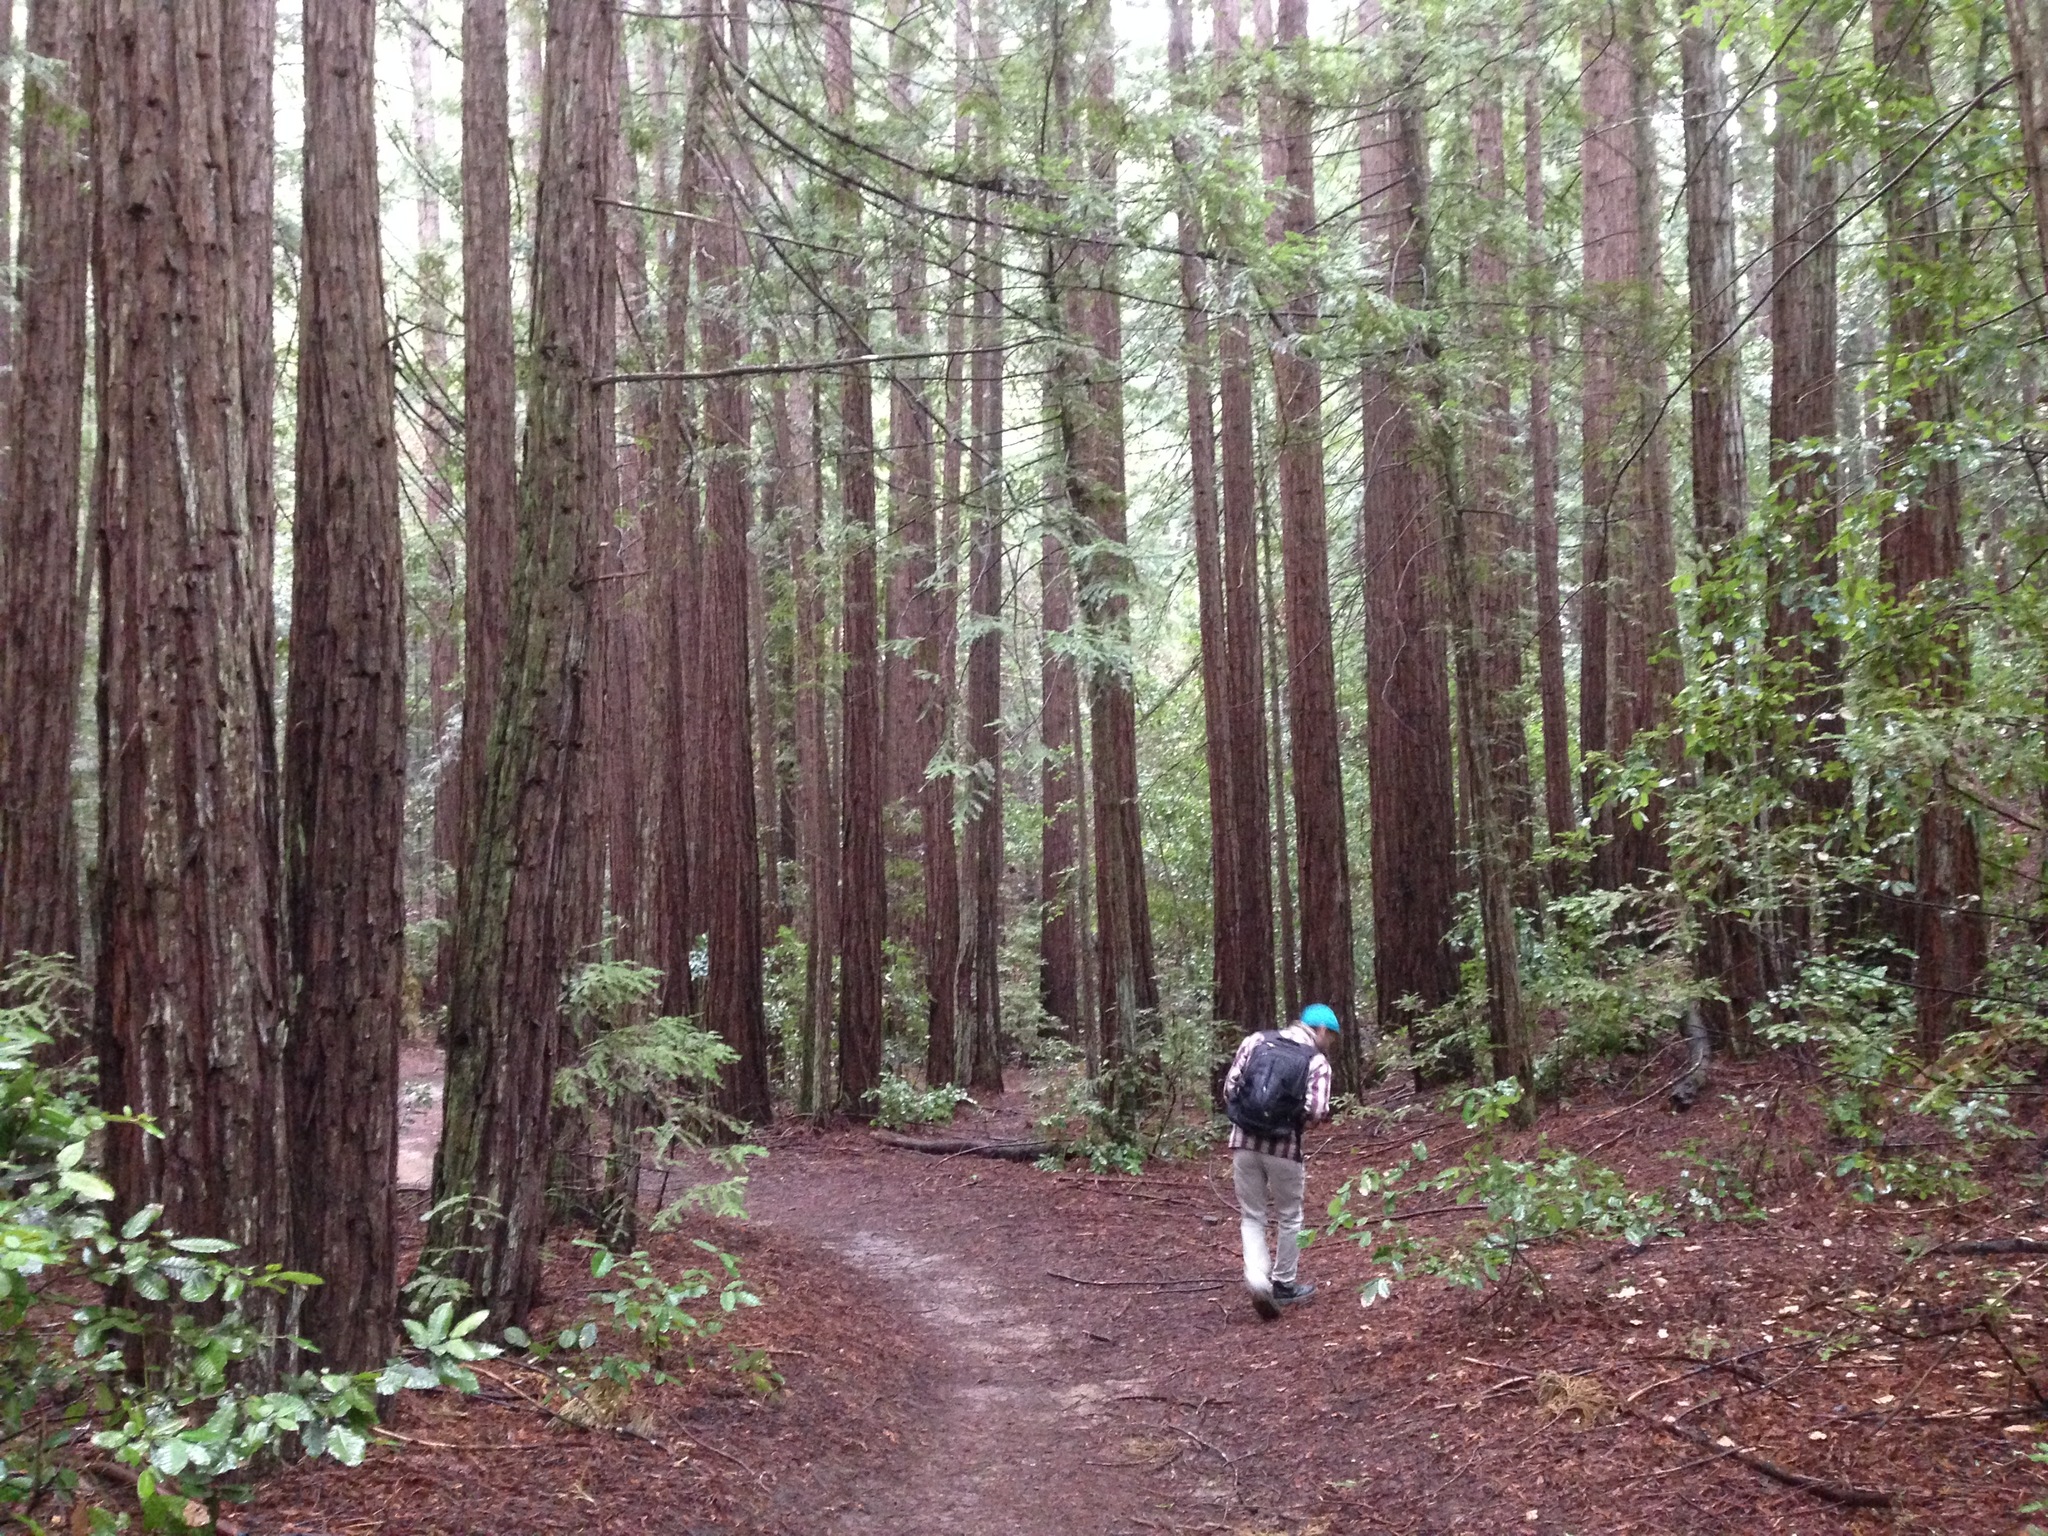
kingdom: Plantae
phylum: Tracheophyta
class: Pinopsida
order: Pinales
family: Cupressaceae
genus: Sequoia
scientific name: Sequoia sempervirens
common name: Coast redwood
